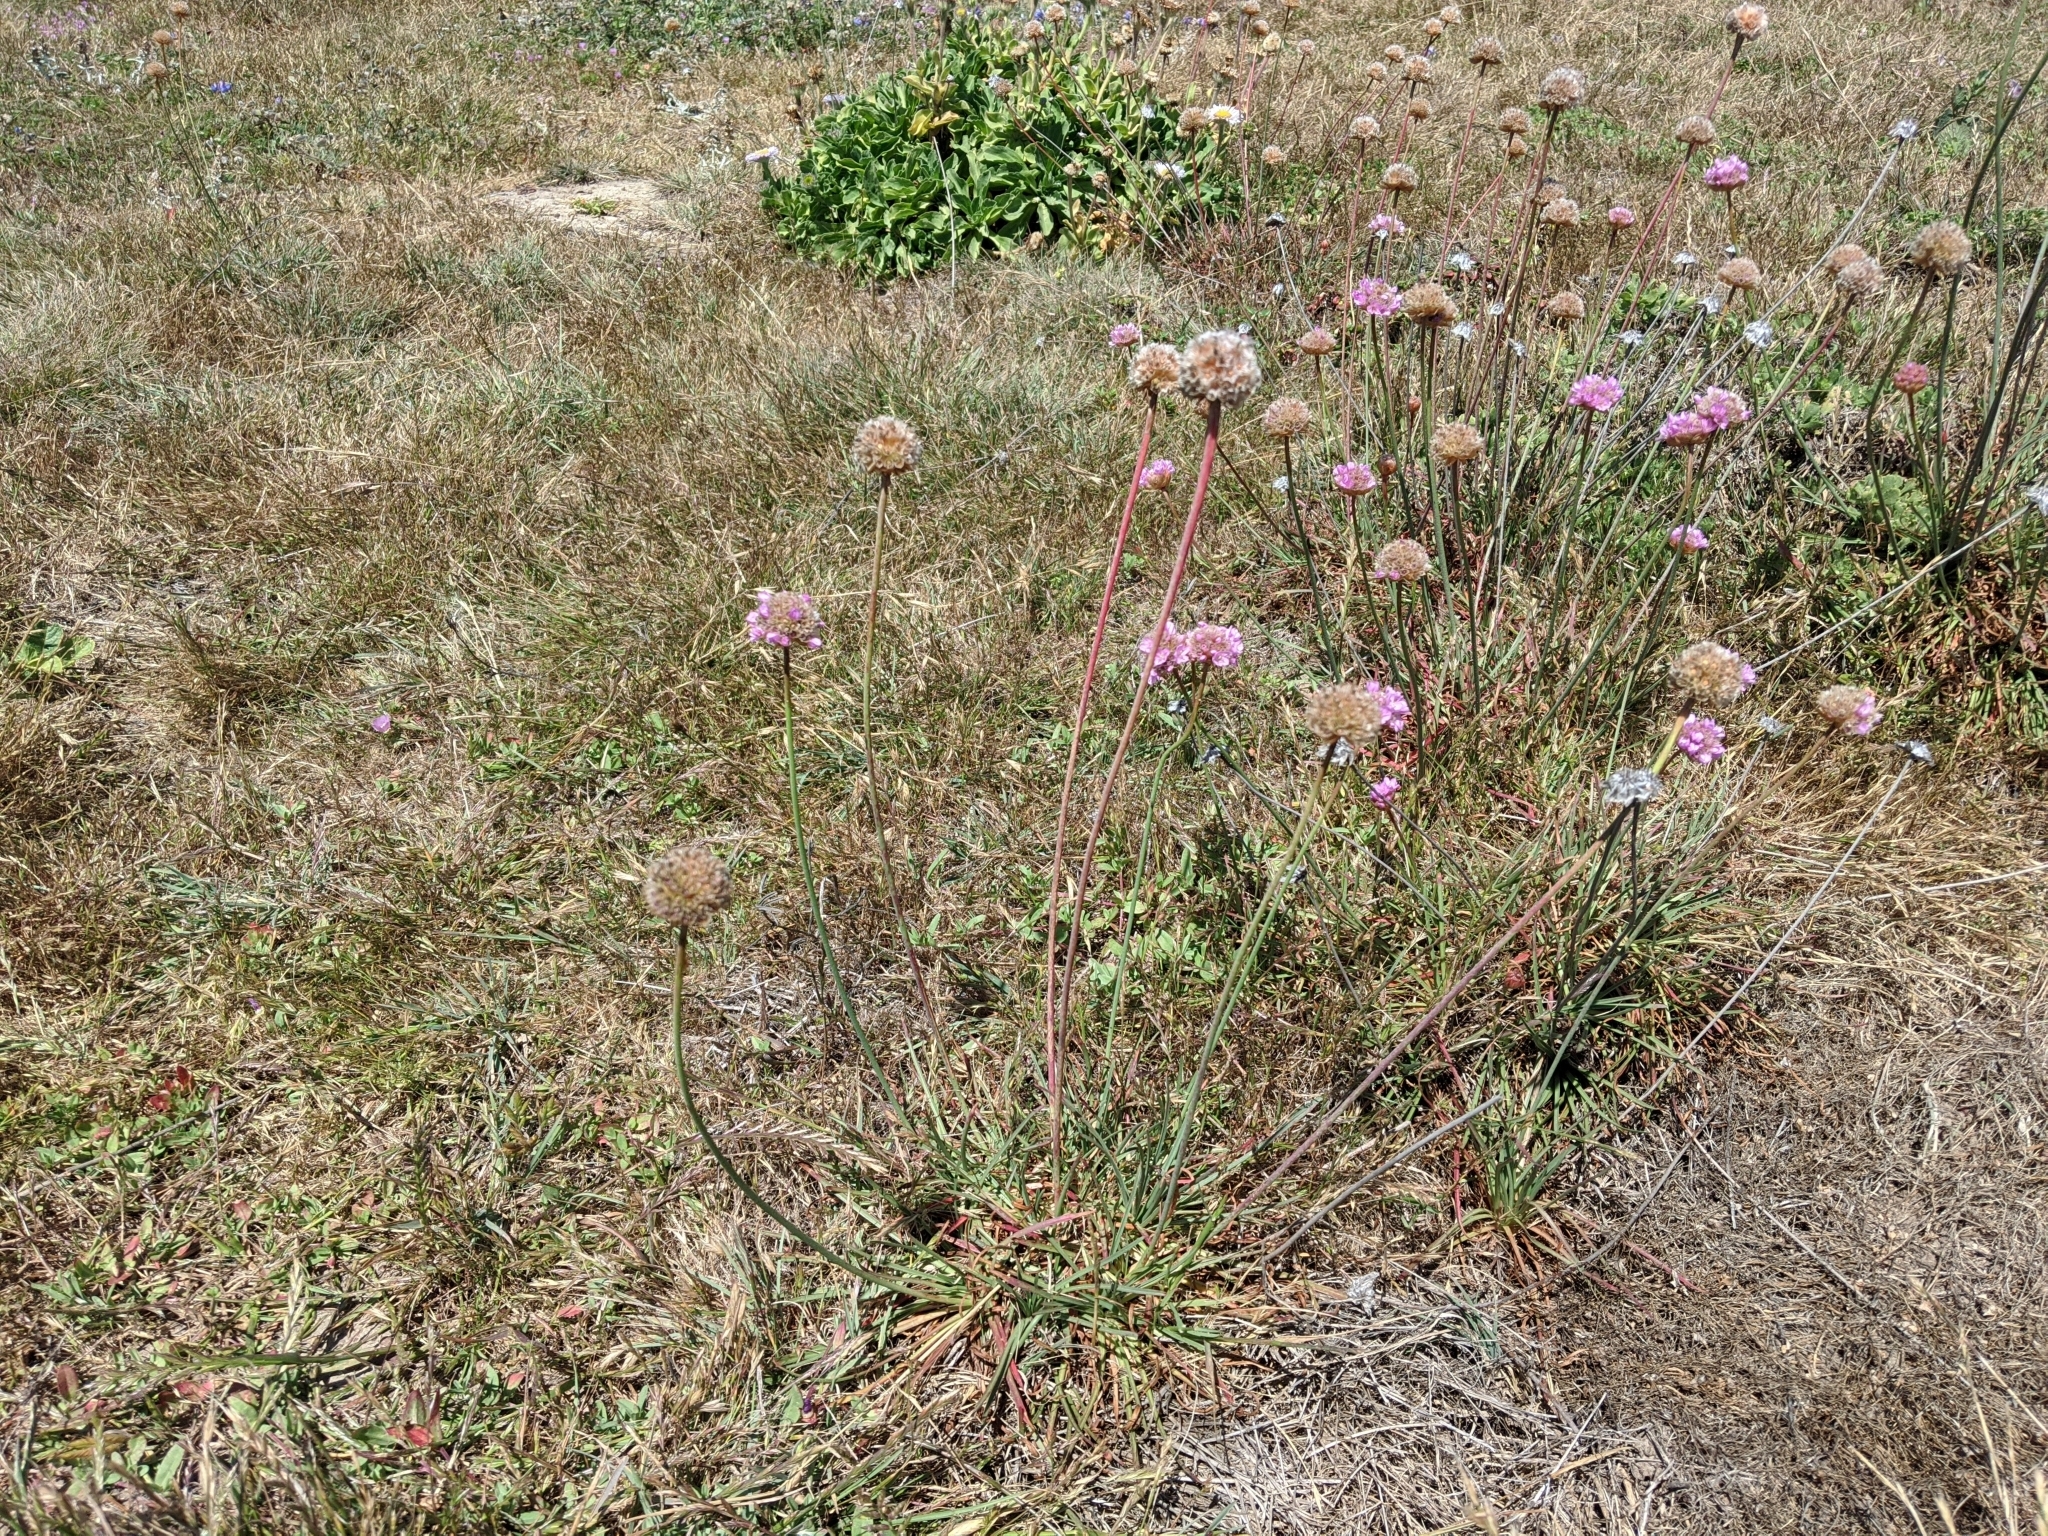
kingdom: Plantae
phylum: Tracheophyta
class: Magnoliopsida
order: Caryophyllales
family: Plumbaginaceae
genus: Armeria
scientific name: Armeria maritima
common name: Thrift
